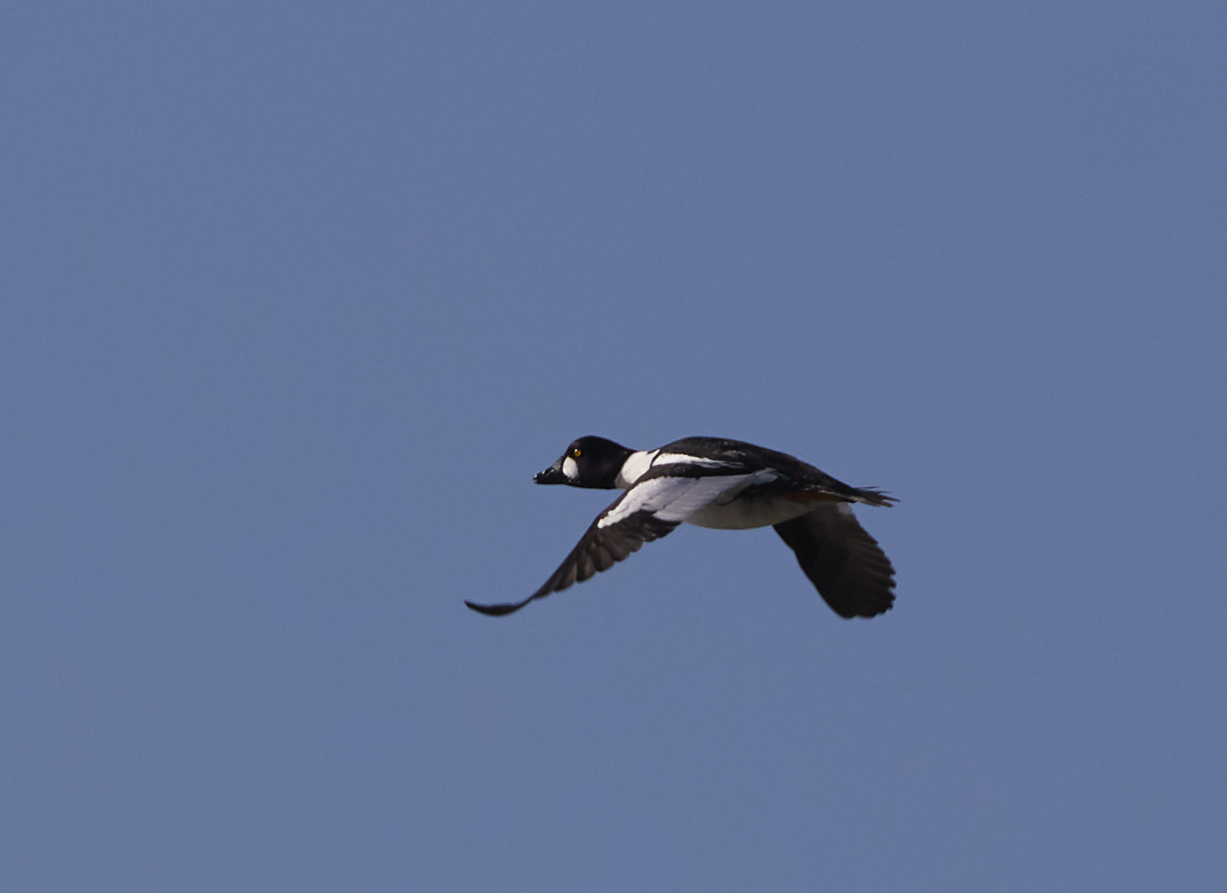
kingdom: Animalia
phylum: Chordata
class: Aves
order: Anseriformes
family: Anatidae
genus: Bucephala
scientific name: Bucephala clangula
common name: Common goldeneye
